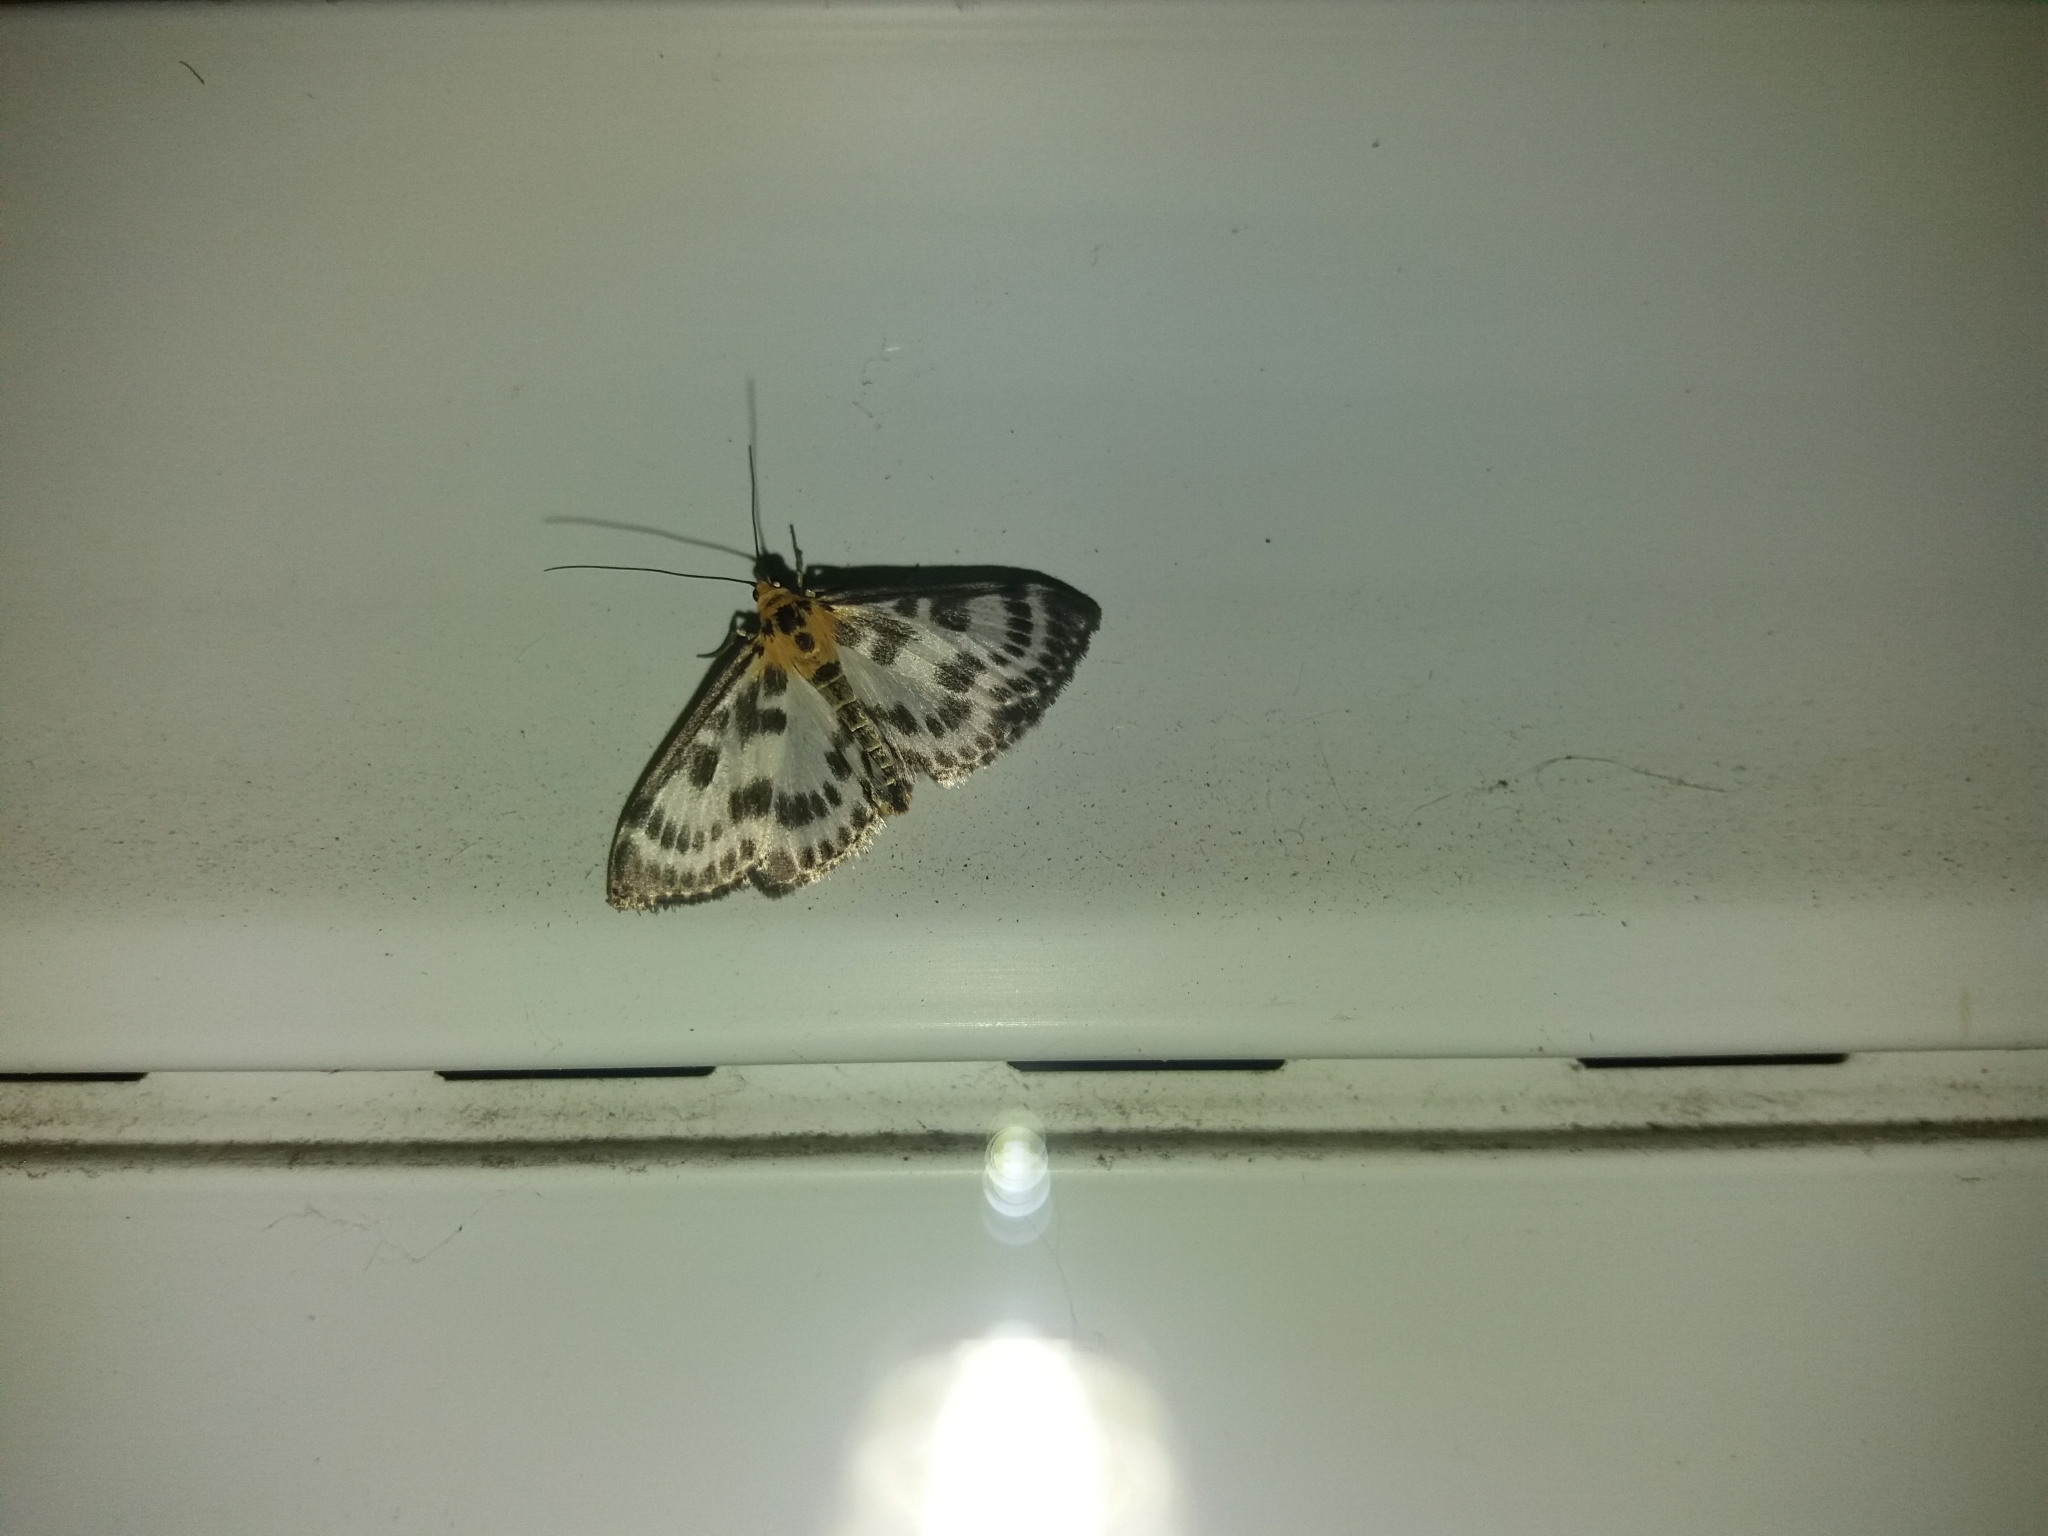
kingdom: Animalia
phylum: Arthropoda
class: Insecta
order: Lepidoptera
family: Crambidae
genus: Anania
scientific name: Anania hortulata
